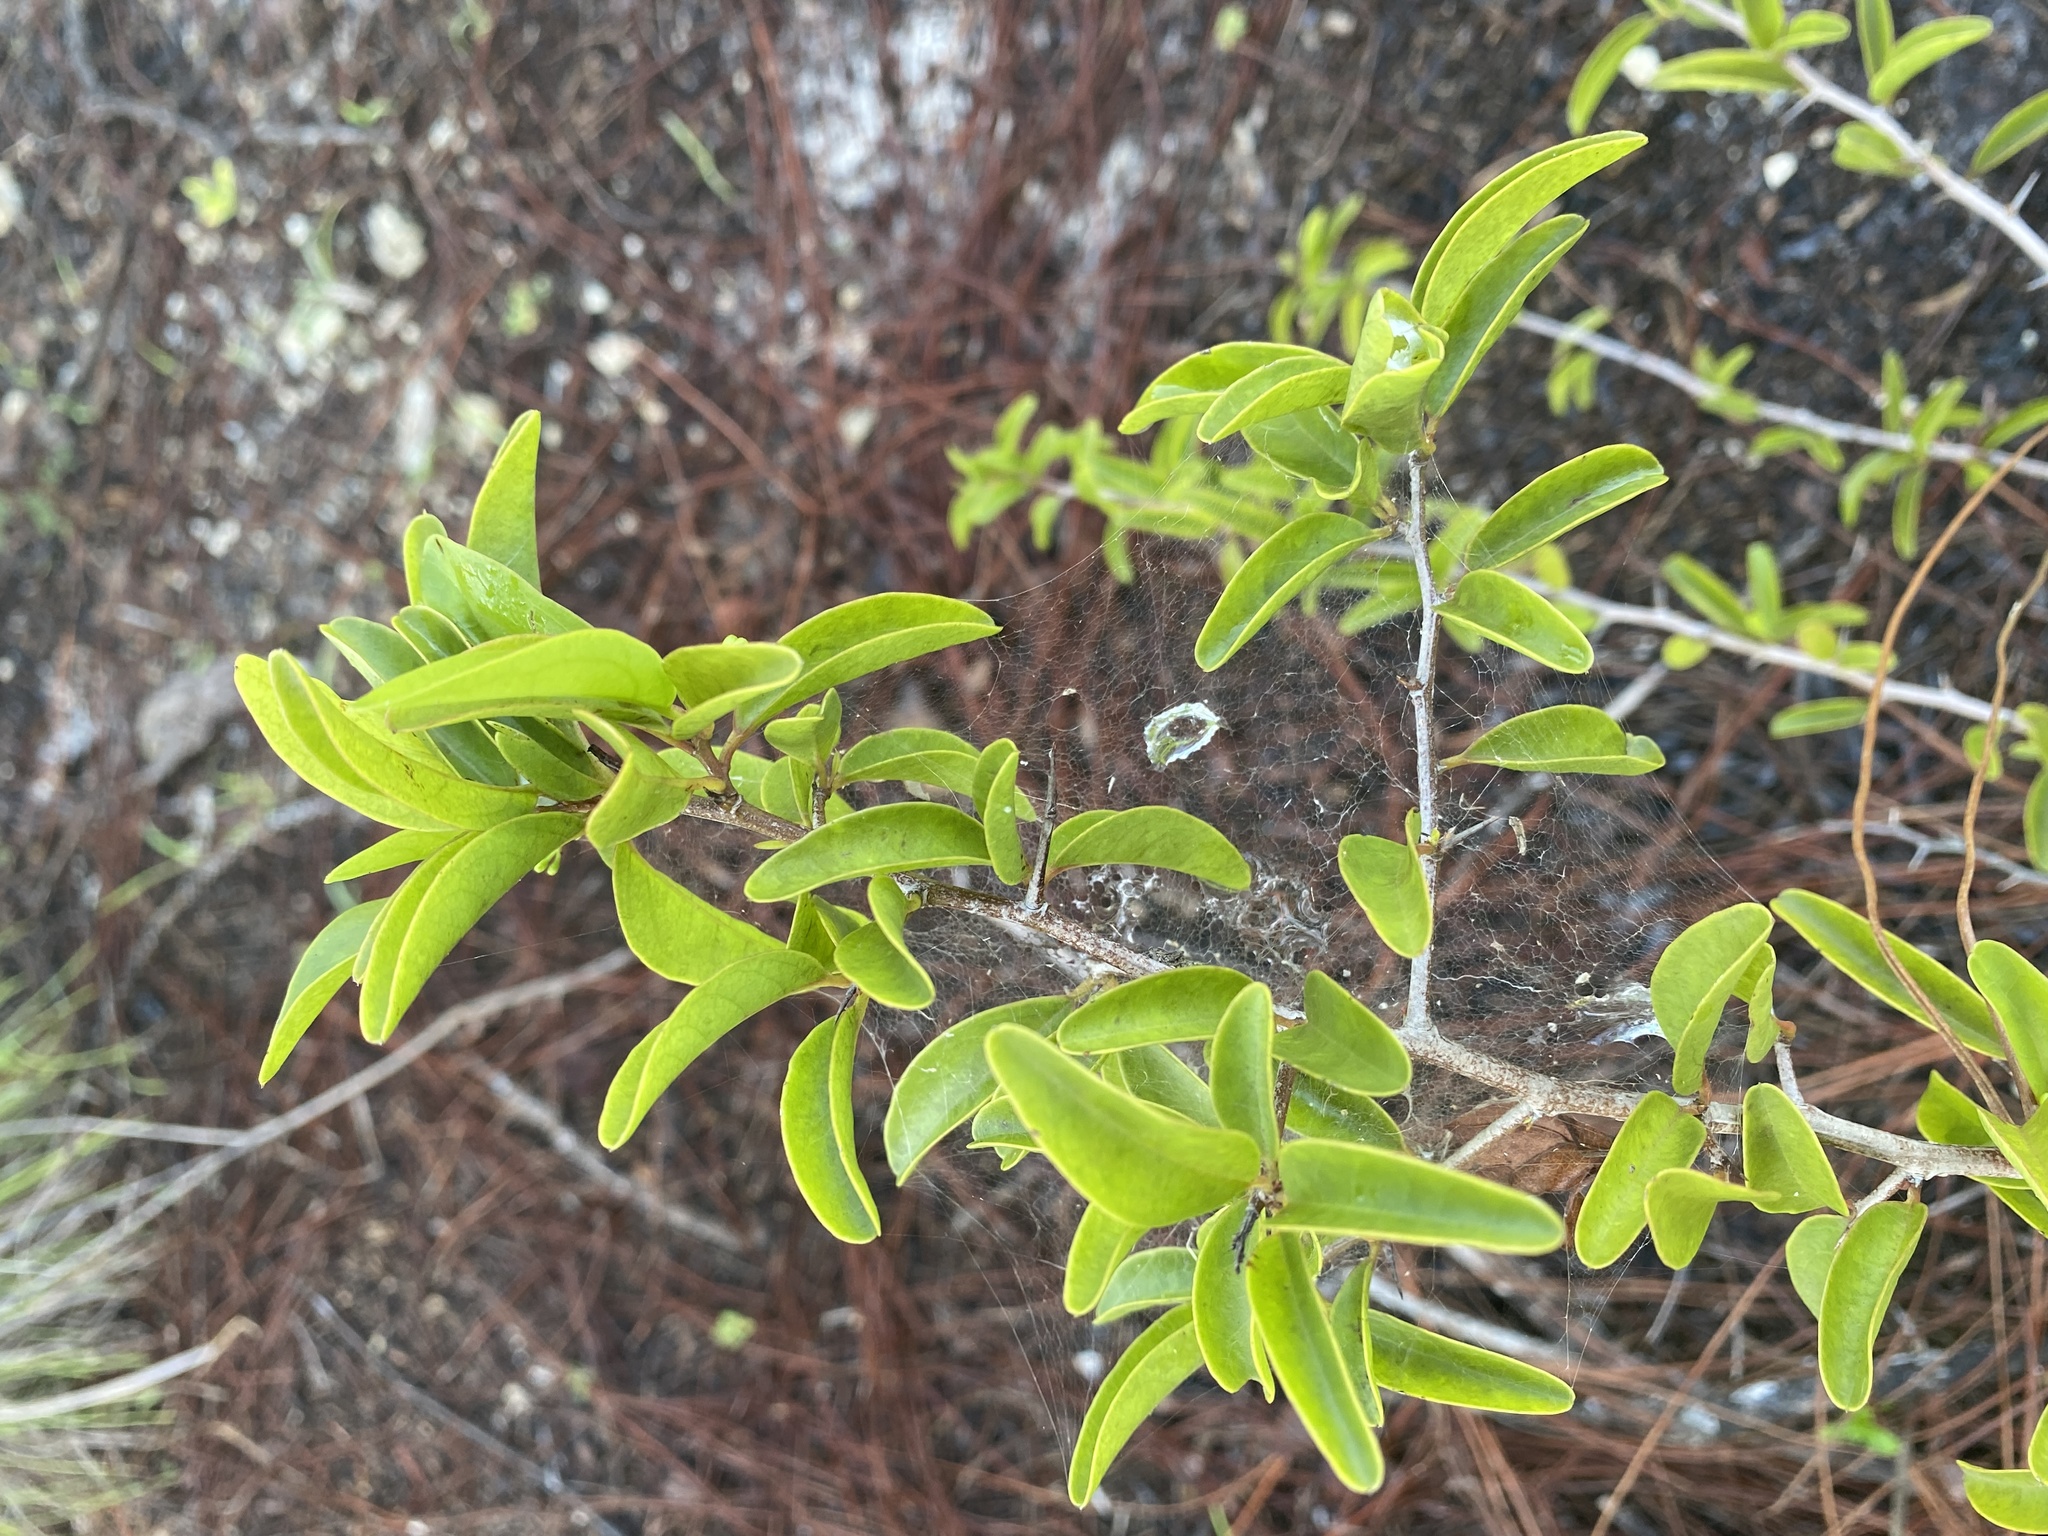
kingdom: Plantae
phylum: Tracheophyta
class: Magnoliopsida
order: Santalales
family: Ximeniaceae
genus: Ximenia
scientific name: Ximenia americana
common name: Tallowwood
